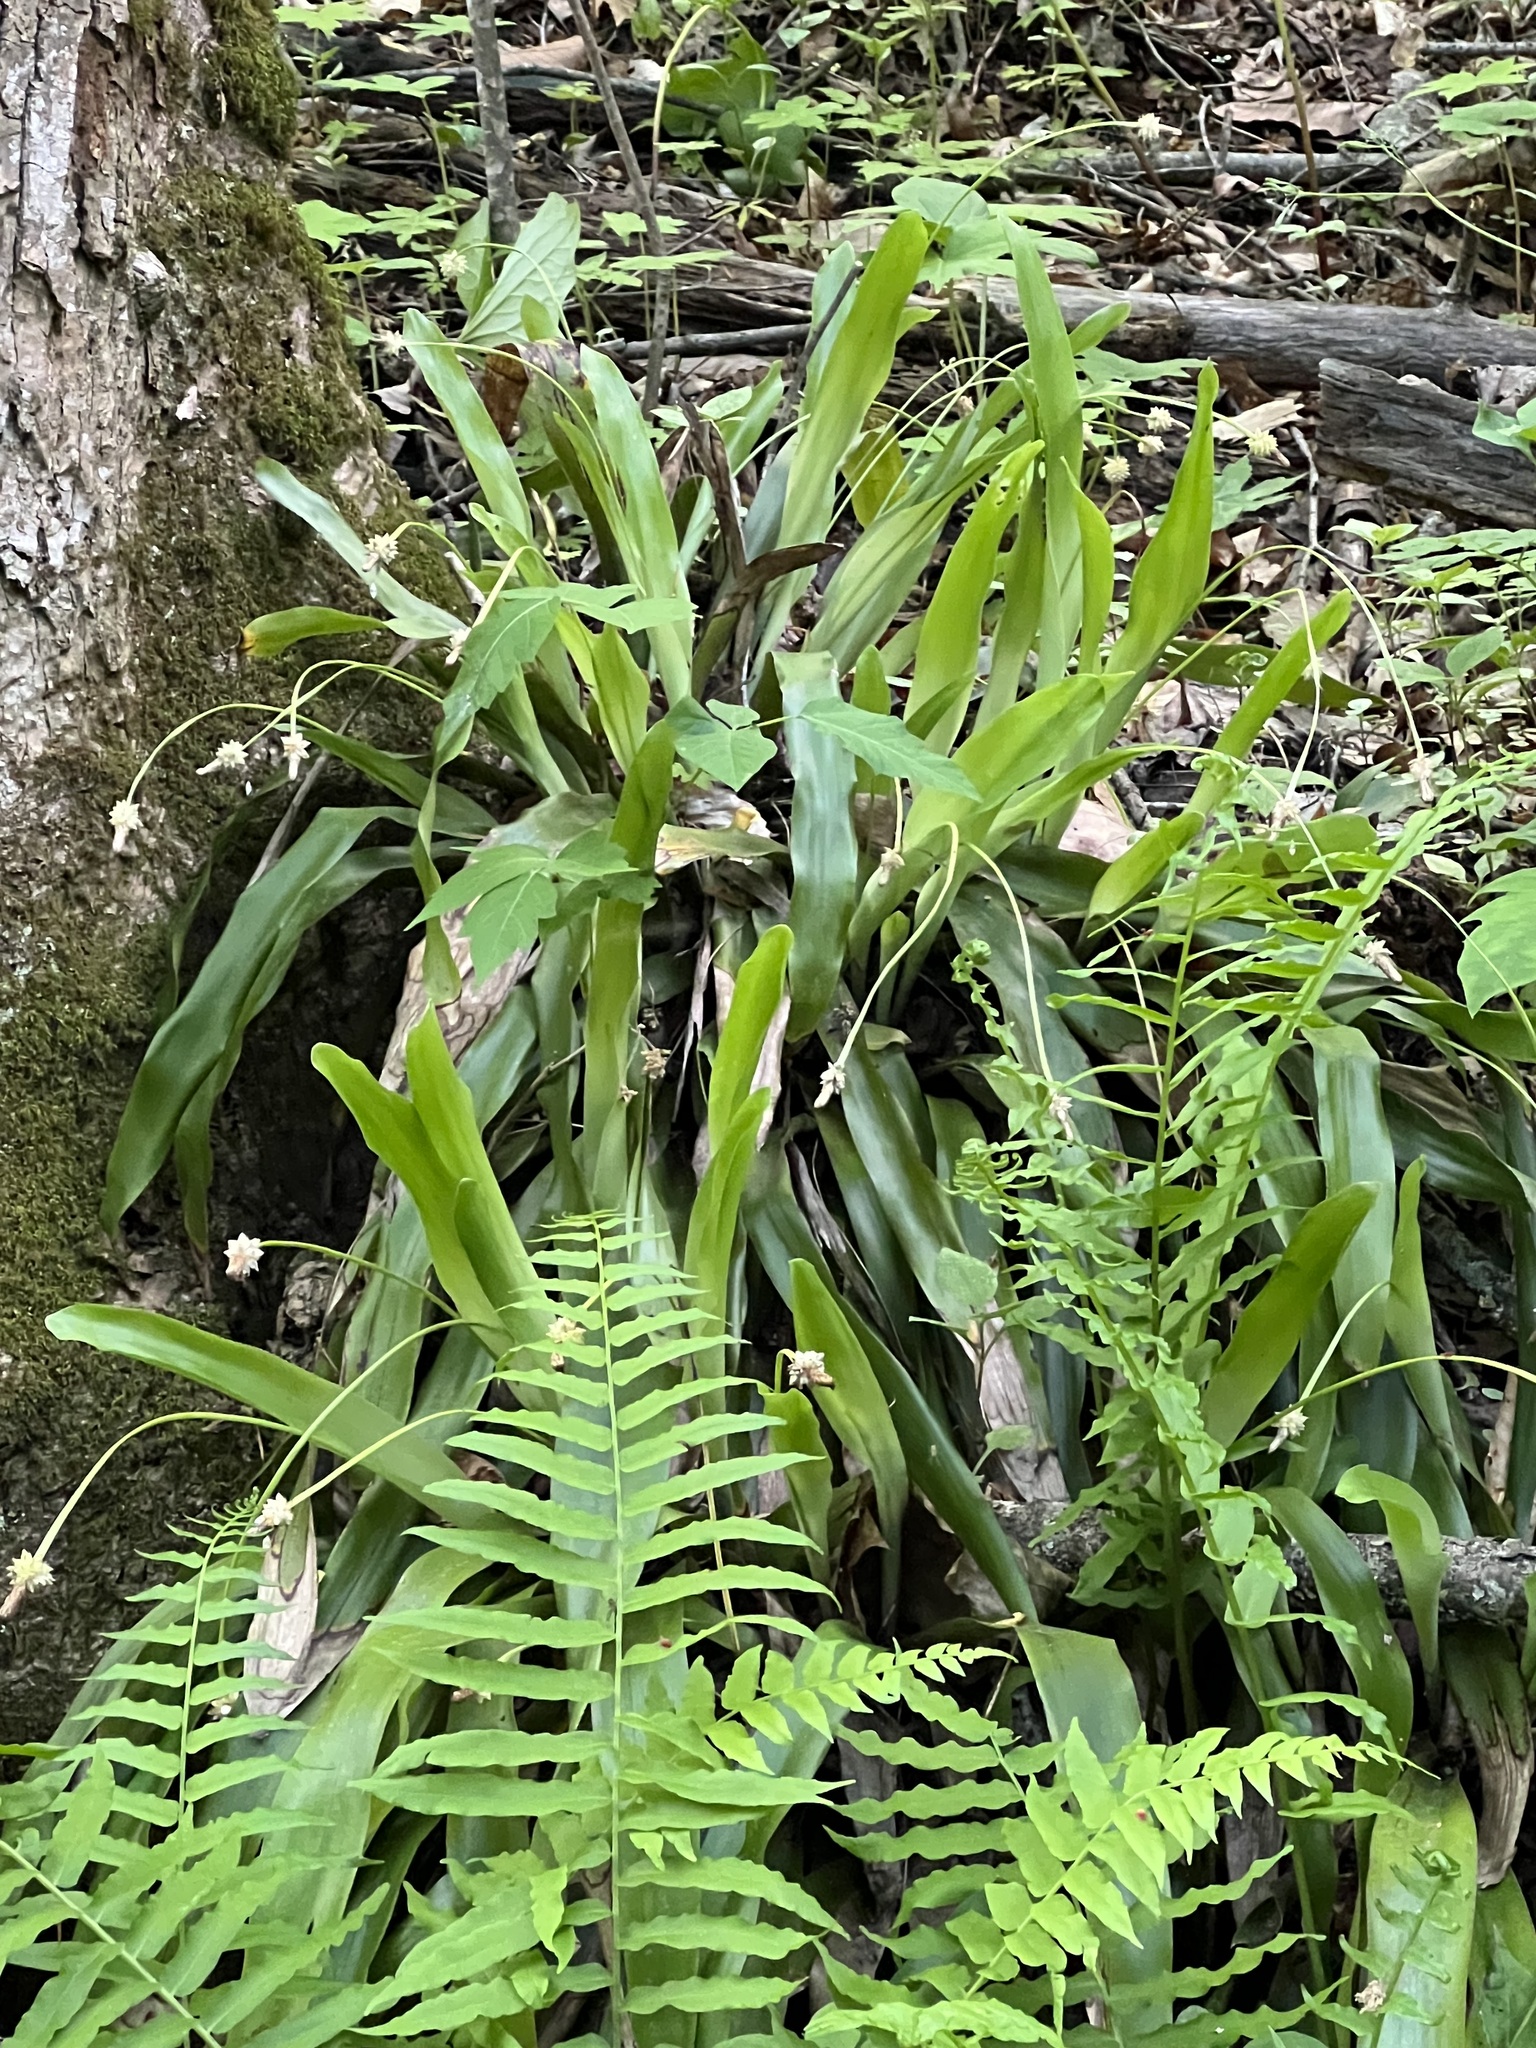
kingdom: Plantae
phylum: Tracheophyta
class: Liliopsida
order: Poales
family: Cyperaceae
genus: Carex
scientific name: Carex fraseriana
